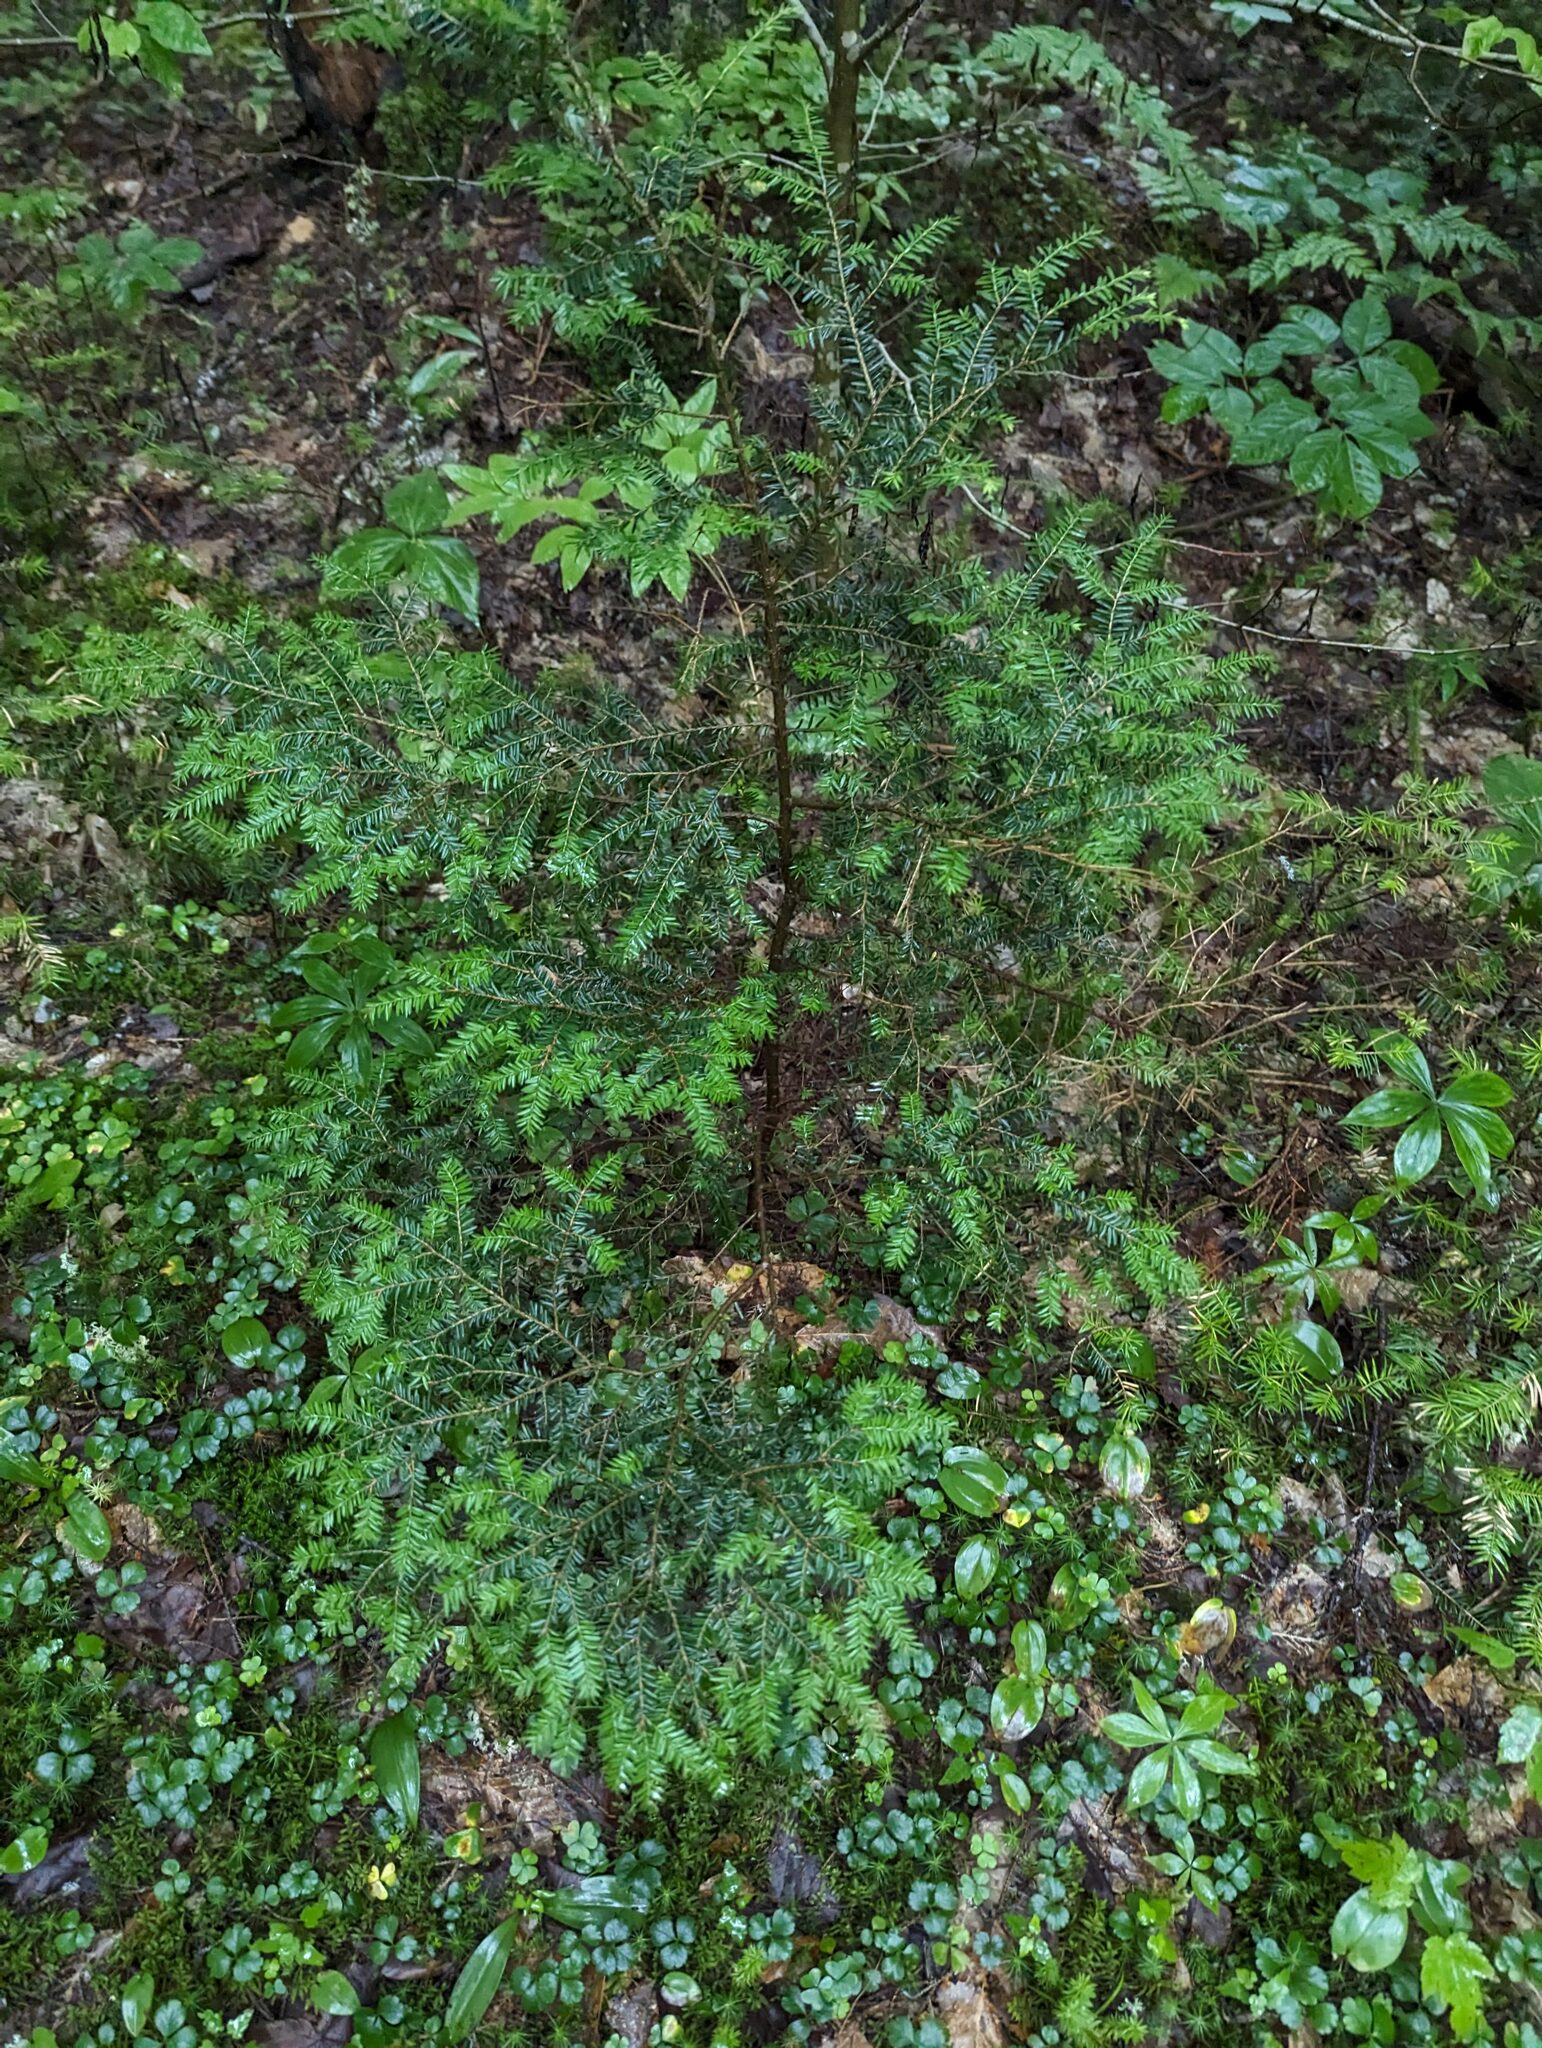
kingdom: Plantae
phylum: Tracheophyta
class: Pinopsida
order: Pinales
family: Pinaceae
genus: Tsuga
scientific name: Tsuga canadensis
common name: Eastern hemlock
